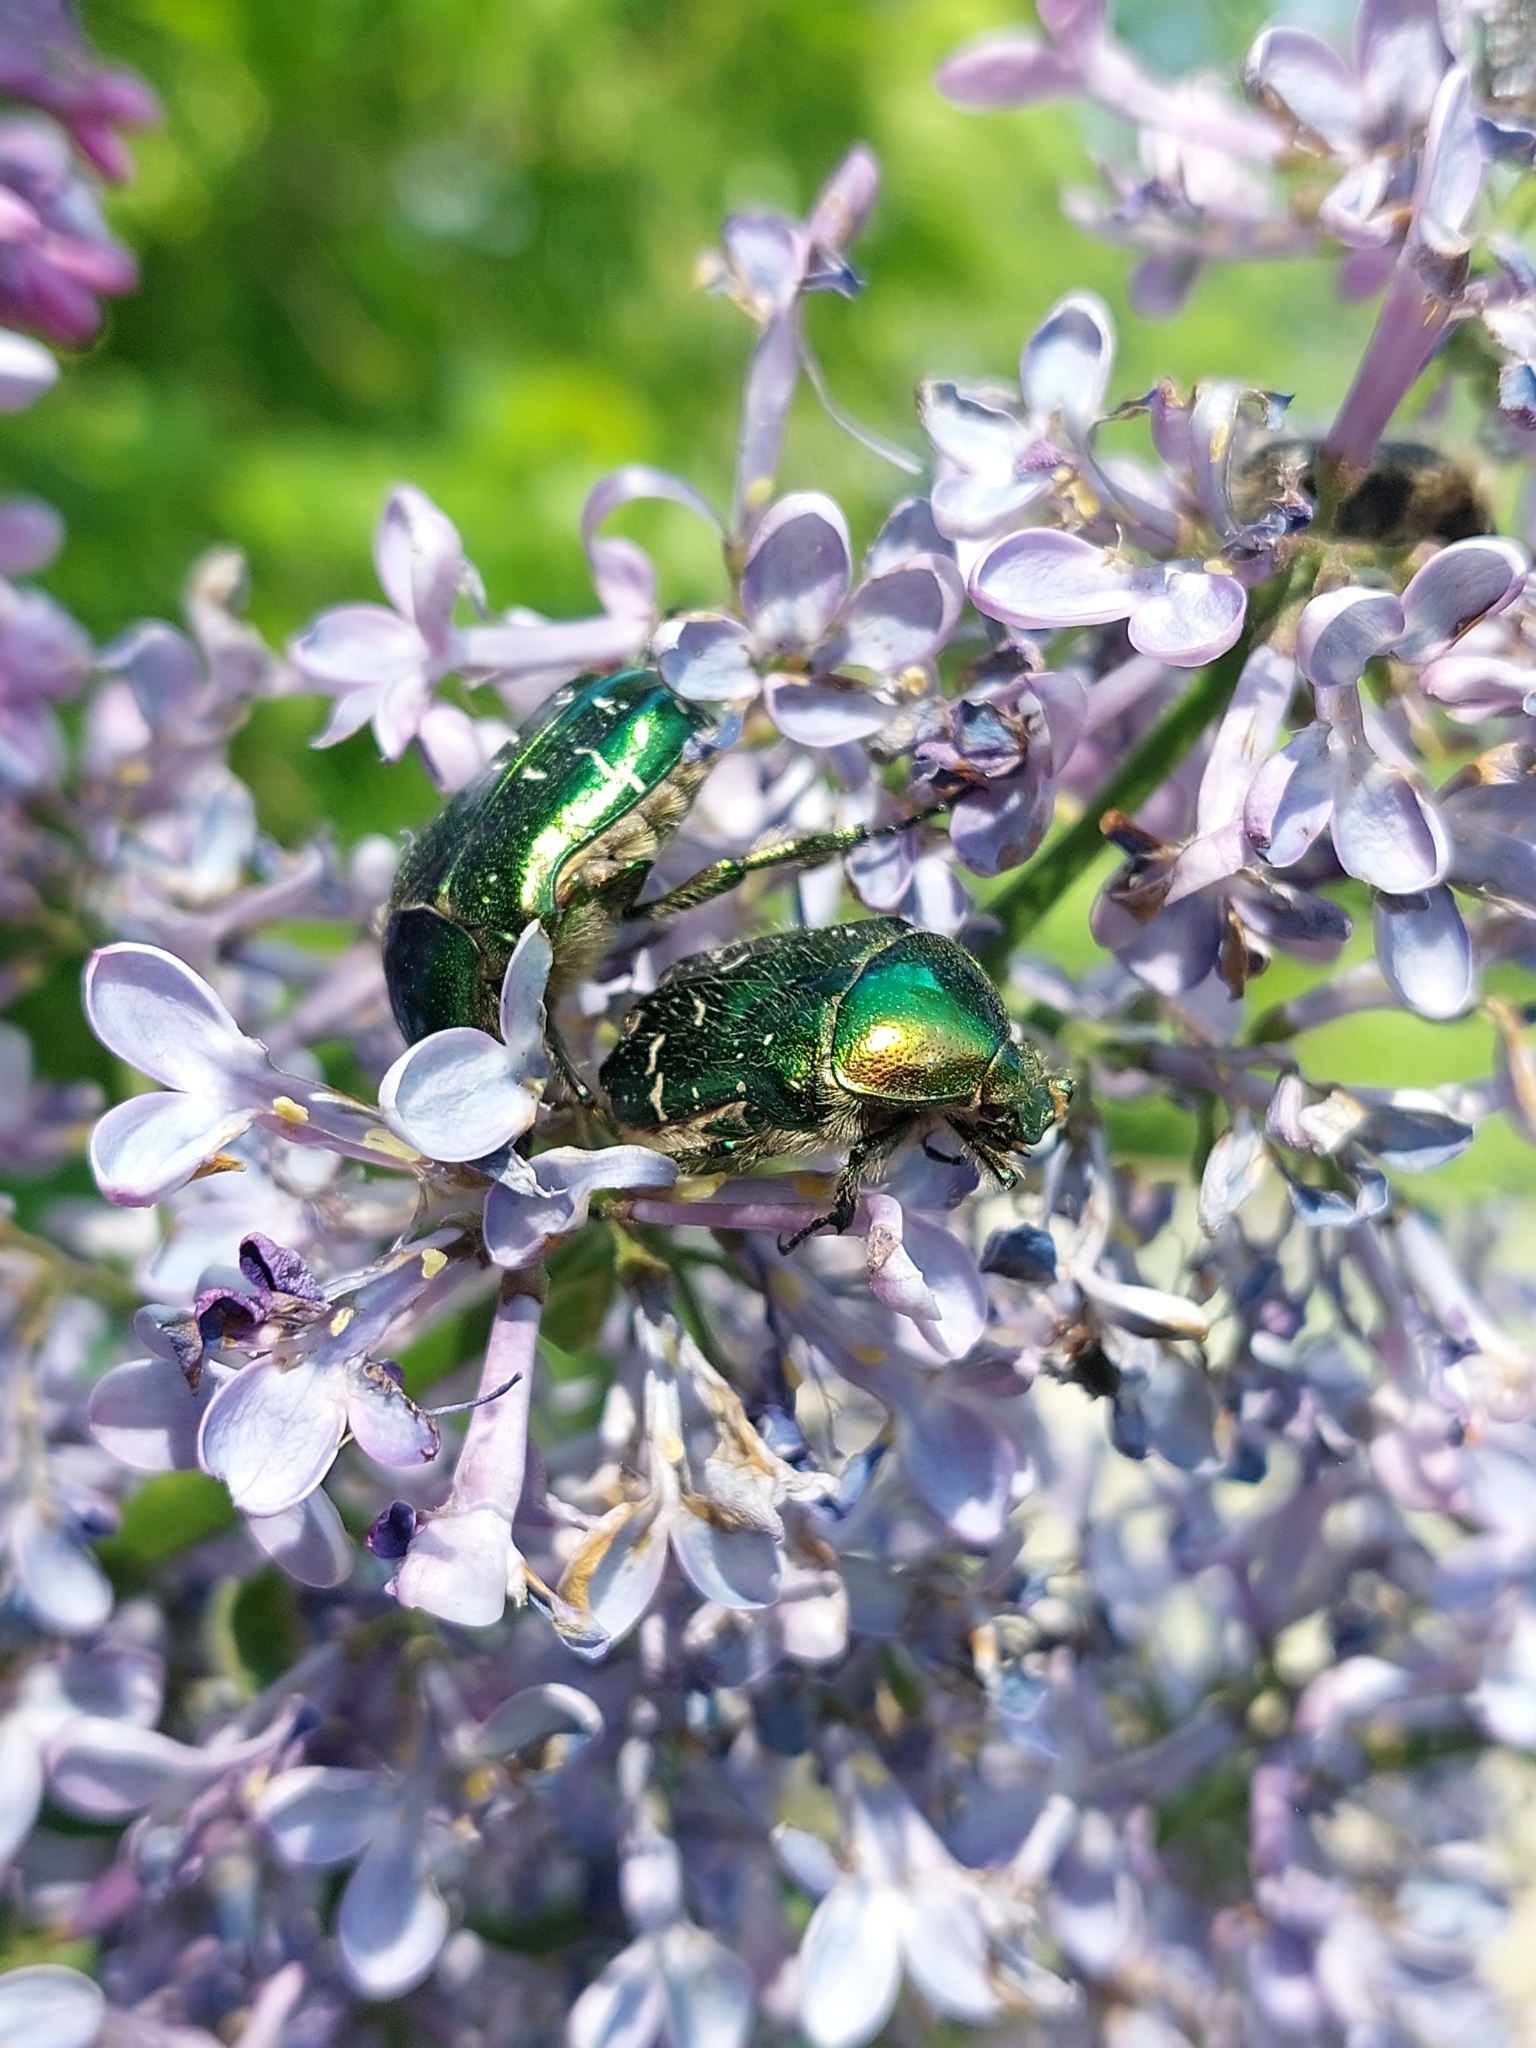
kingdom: Animalia
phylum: Arthropoda
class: Insecta
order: Coleoptera
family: Scarabaeidae
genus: Cetonia
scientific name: Cetonia aurata
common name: Rose chafer
